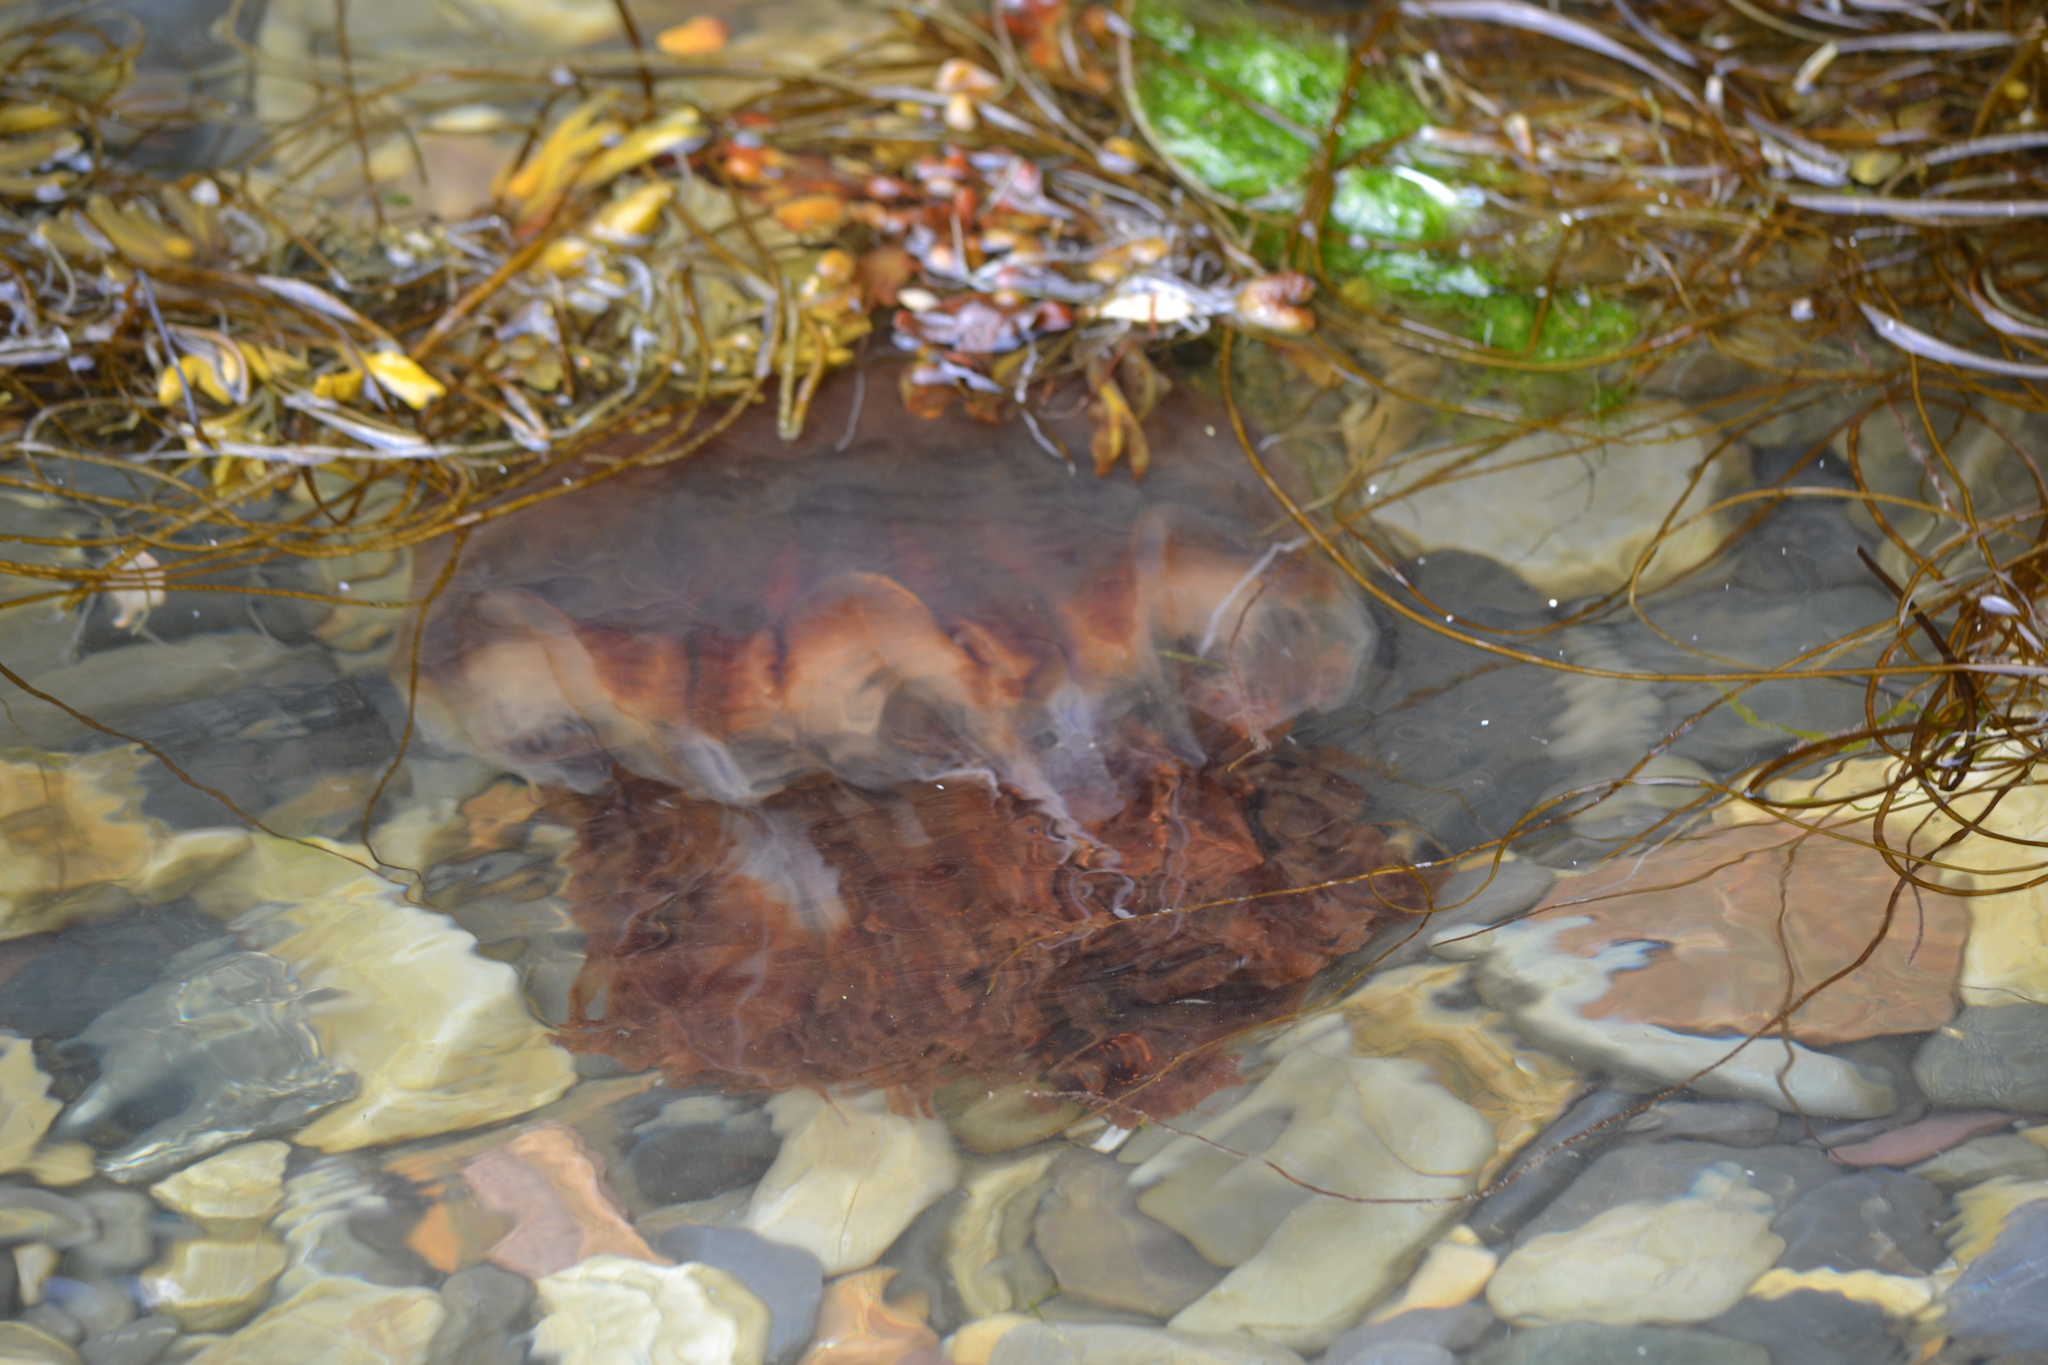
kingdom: Animalia
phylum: Cnidaria
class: Scyphozoa
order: Semaeostomeae
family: Cyaneidae
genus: Cyanea
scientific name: Cyanea capillata
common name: Lion's mane jellyfish
